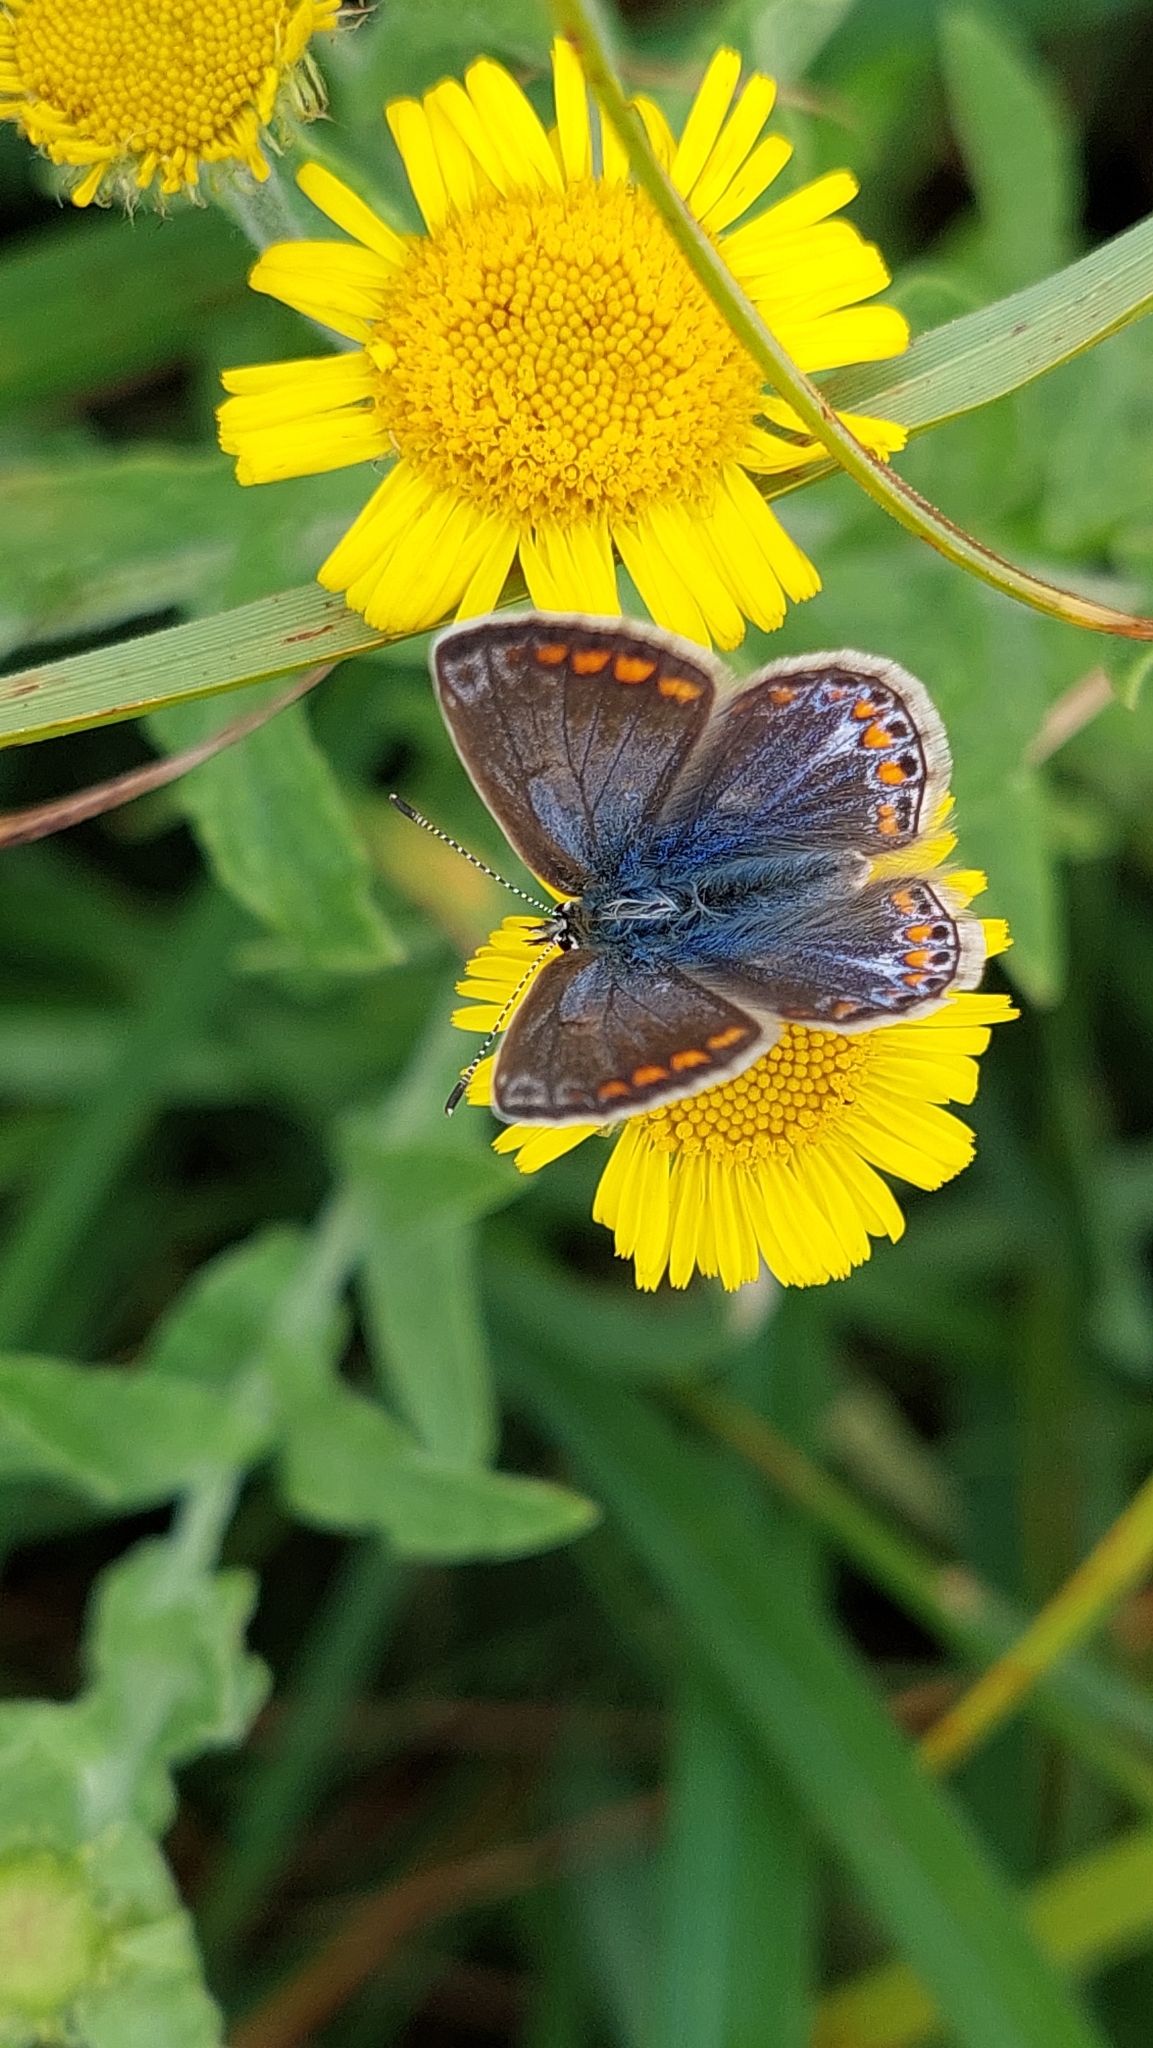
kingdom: Animalia
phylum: Arthropoda
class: Insecta
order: Lepidoptera
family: Lycaenidae
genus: Polyommatus
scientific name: Polyommatus icarus
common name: Common blue
